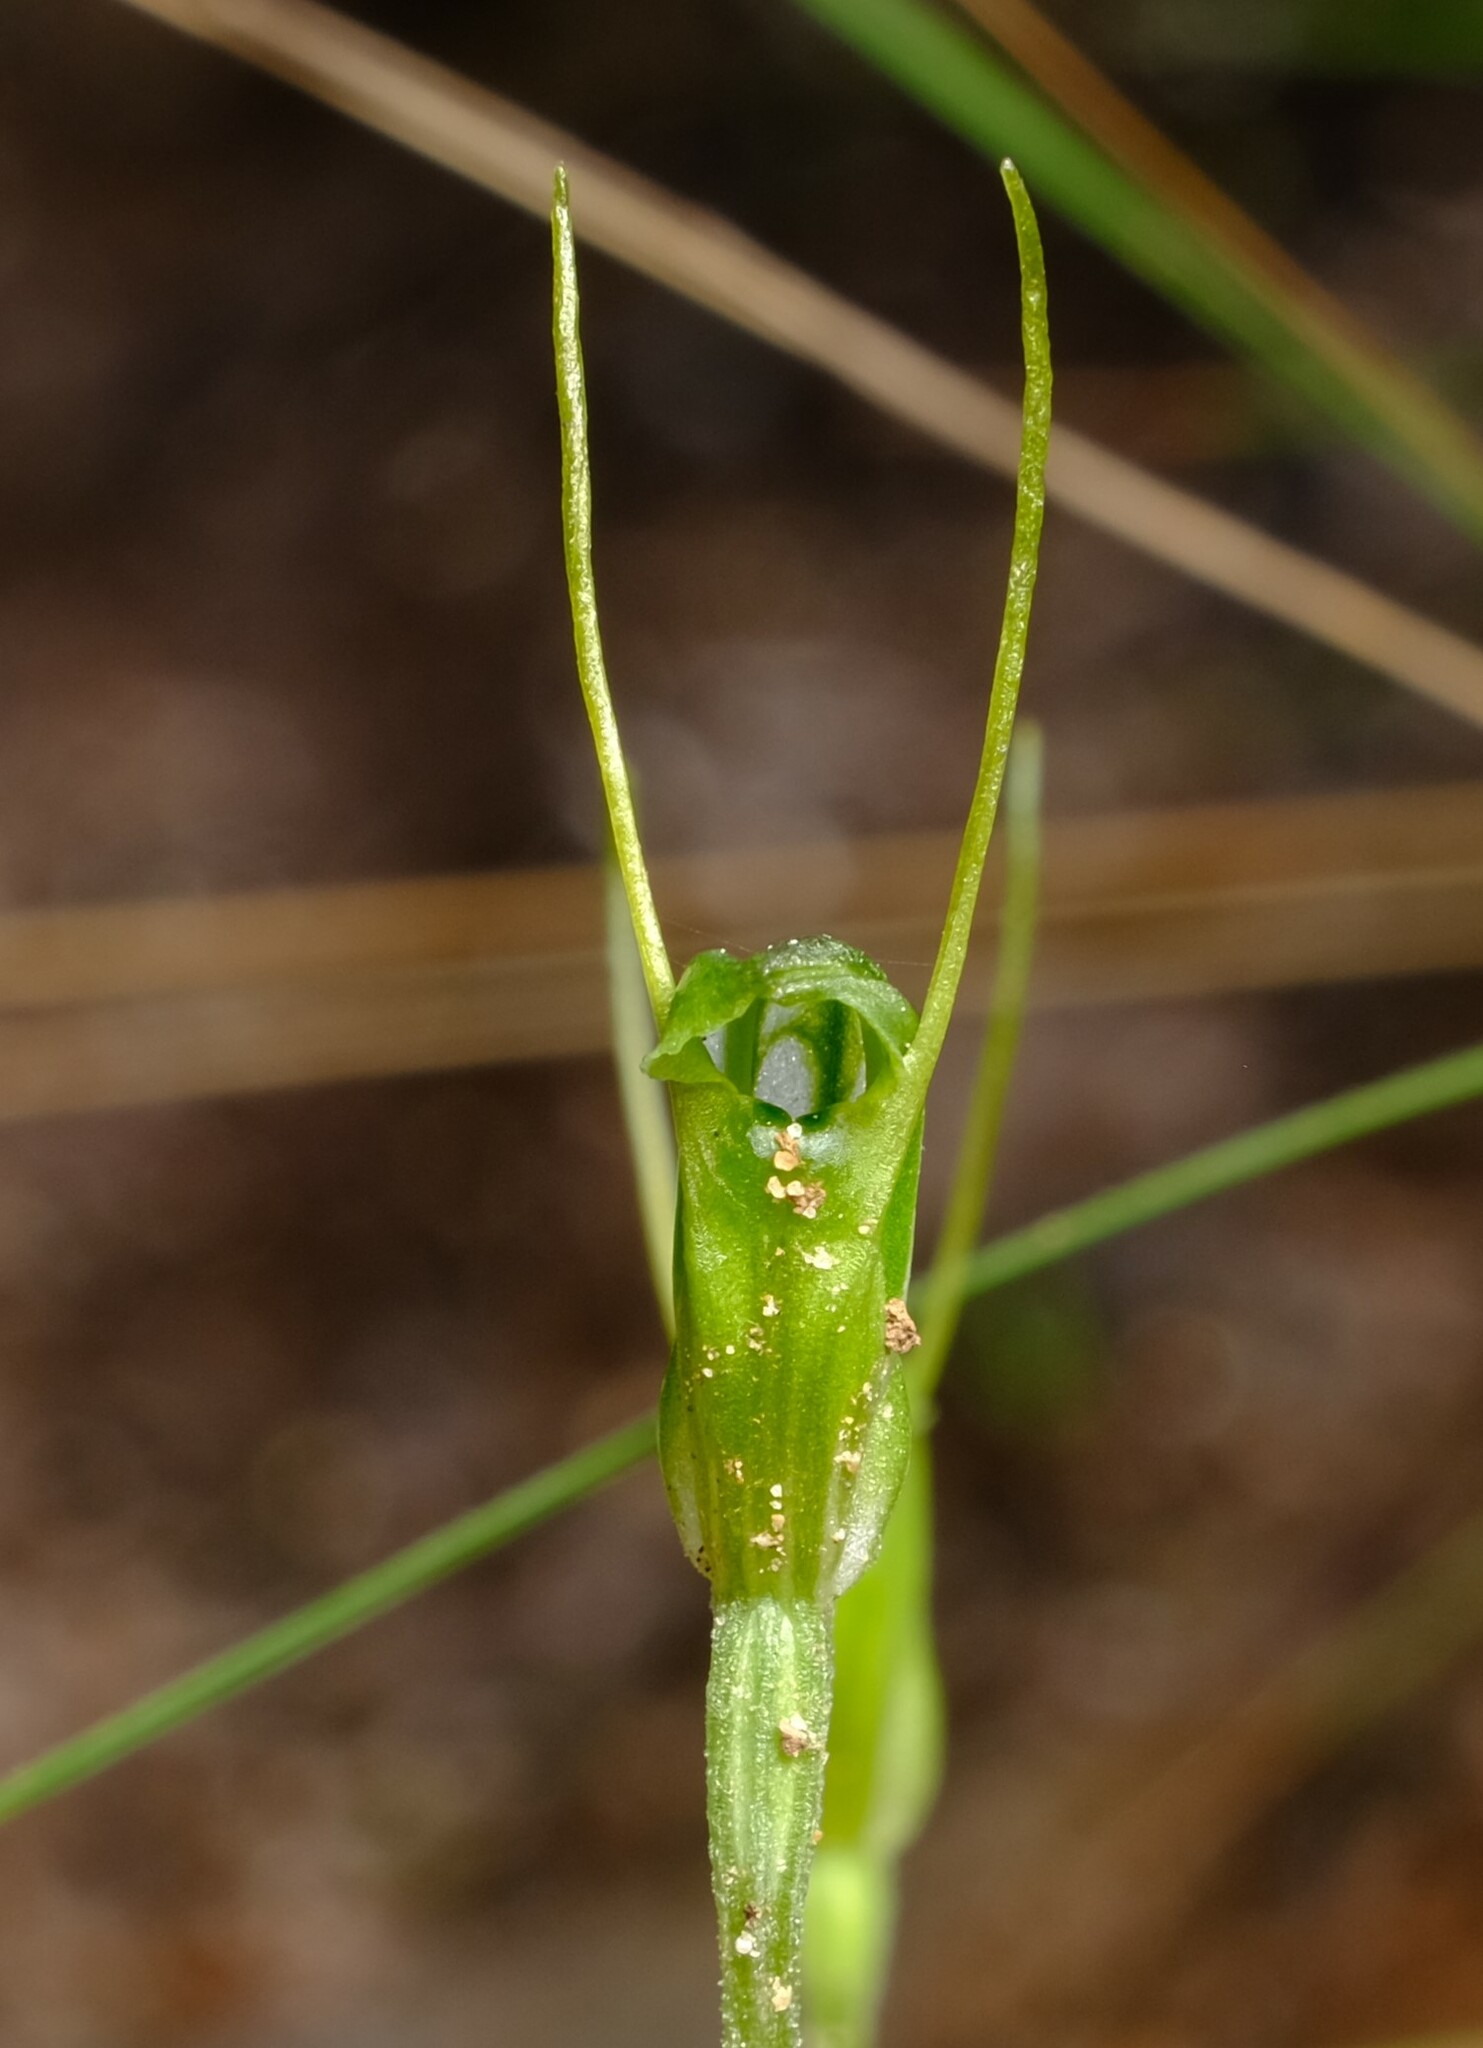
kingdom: Plantae
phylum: Tracheophyta
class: Liliopsida
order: Asparagales
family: Orchidaceae
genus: Pterostylis
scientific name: Pterostylis nana
